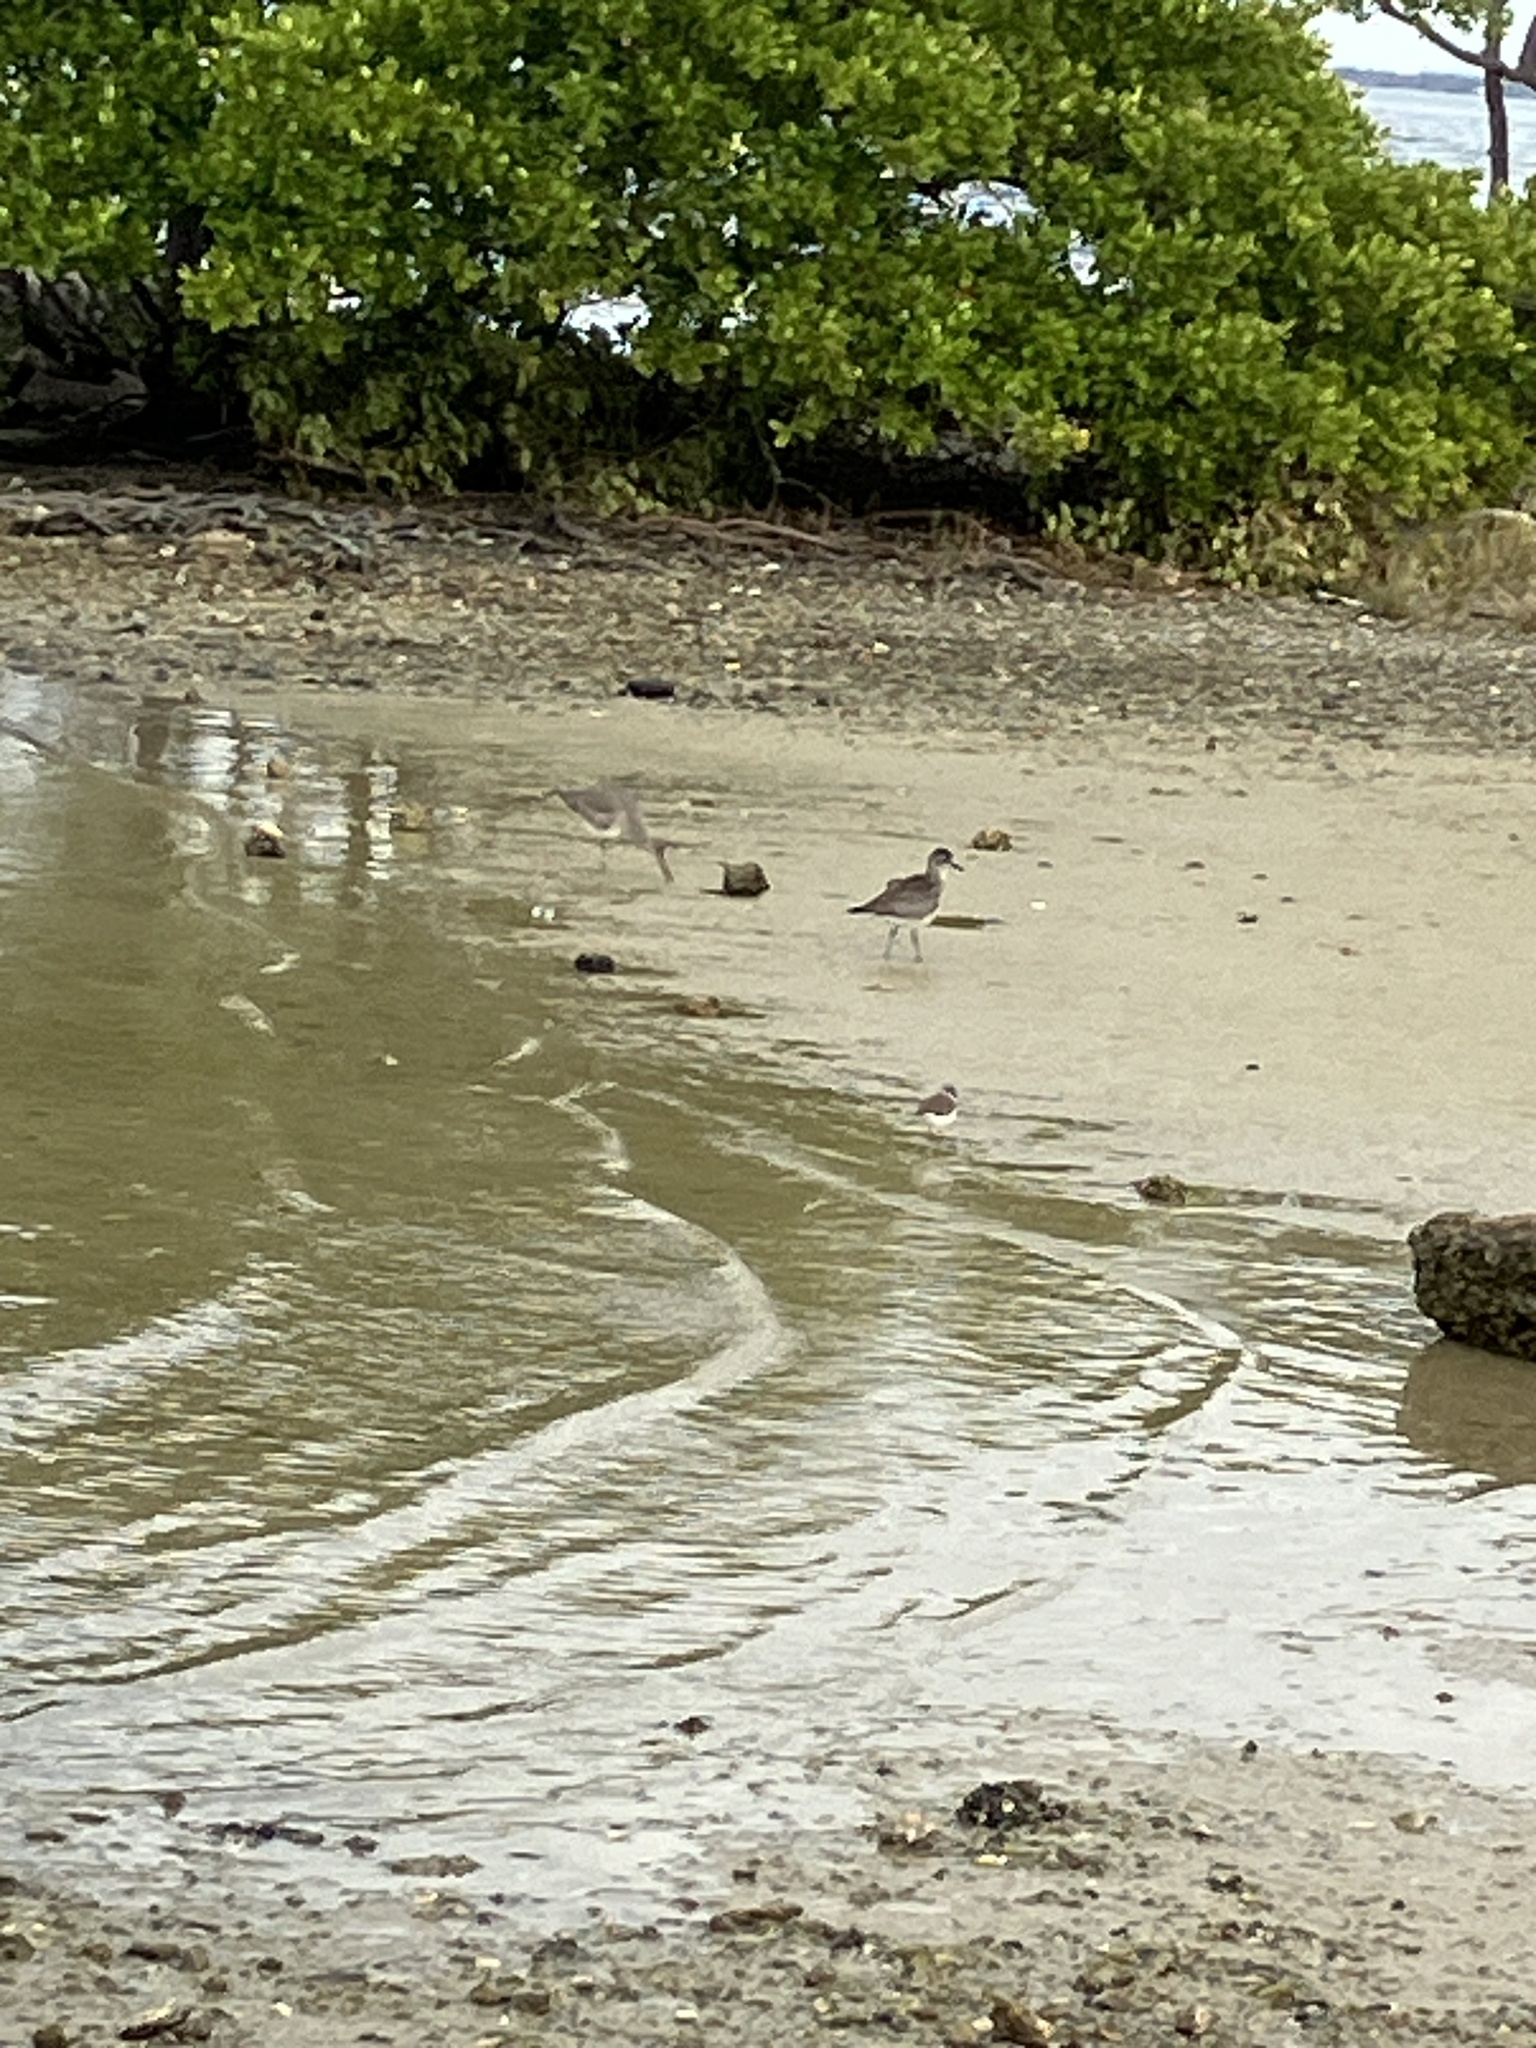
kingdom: Animalia
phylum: Chordata
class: Aves
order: Charadriiformes
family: Charadriidae
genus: Pluvialis
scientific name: Pluvialis squatarola
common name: Grey plover
